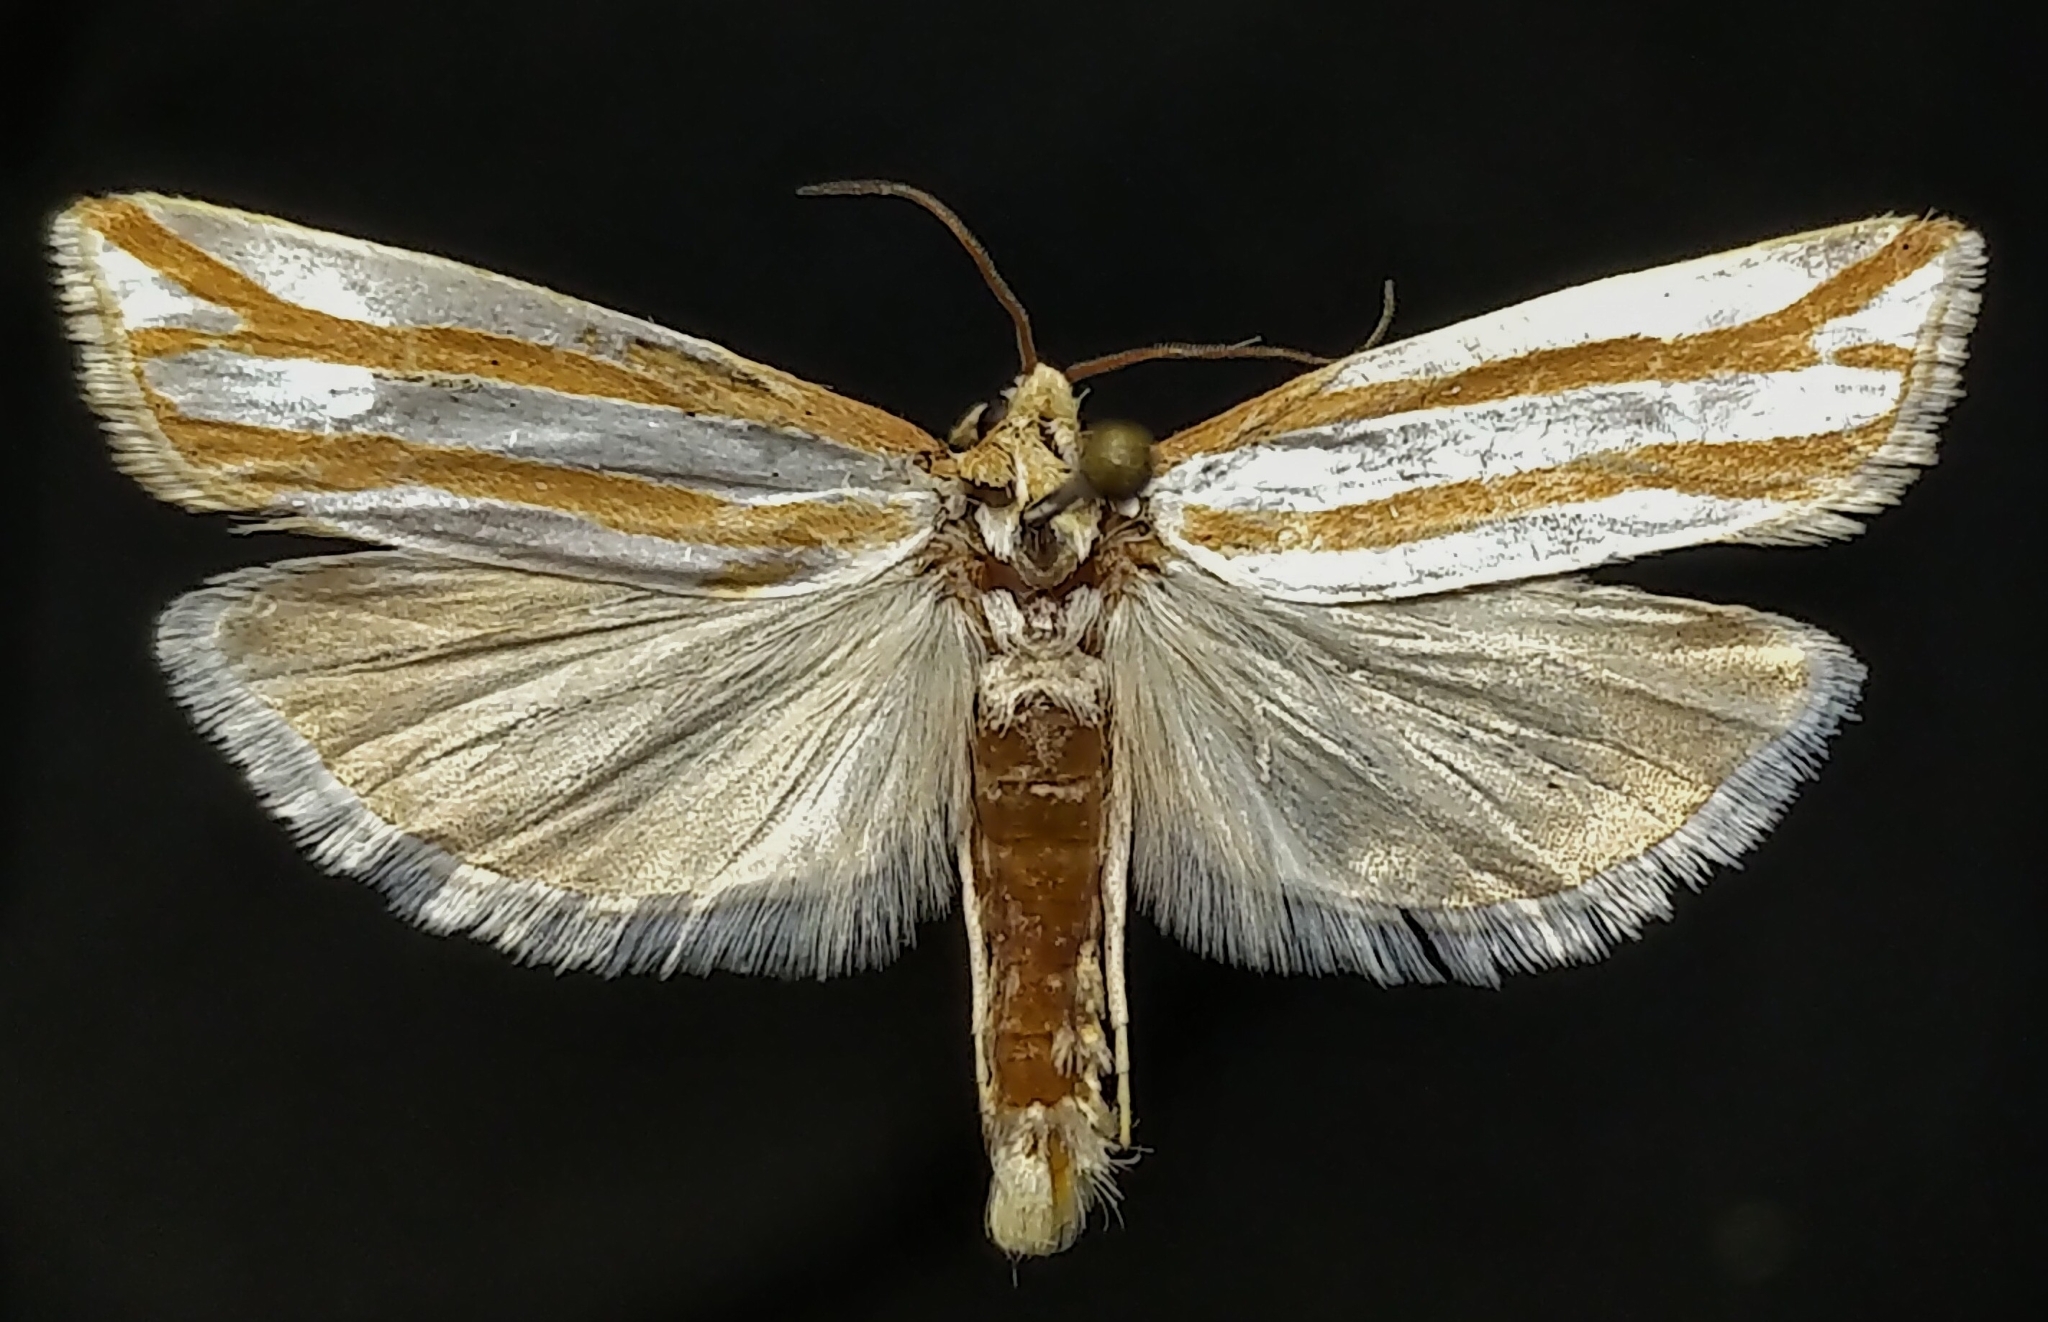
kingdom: Animalia
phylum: Arthropoda
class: Insecta
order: Lepidoptera
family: Tortricidae
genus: Pelochrista
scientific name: Pelochrista crambitana
